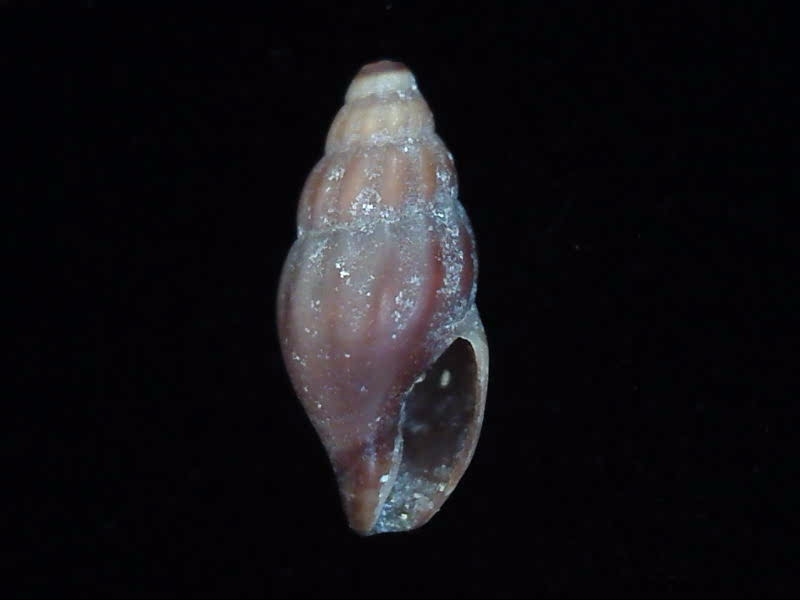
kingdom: Animalia
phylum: Mollusca
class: Gastropoda
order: Neogastropoda
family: Mangeliidae
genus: Neoguraleus
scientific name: Neoguraleus lyallensis
